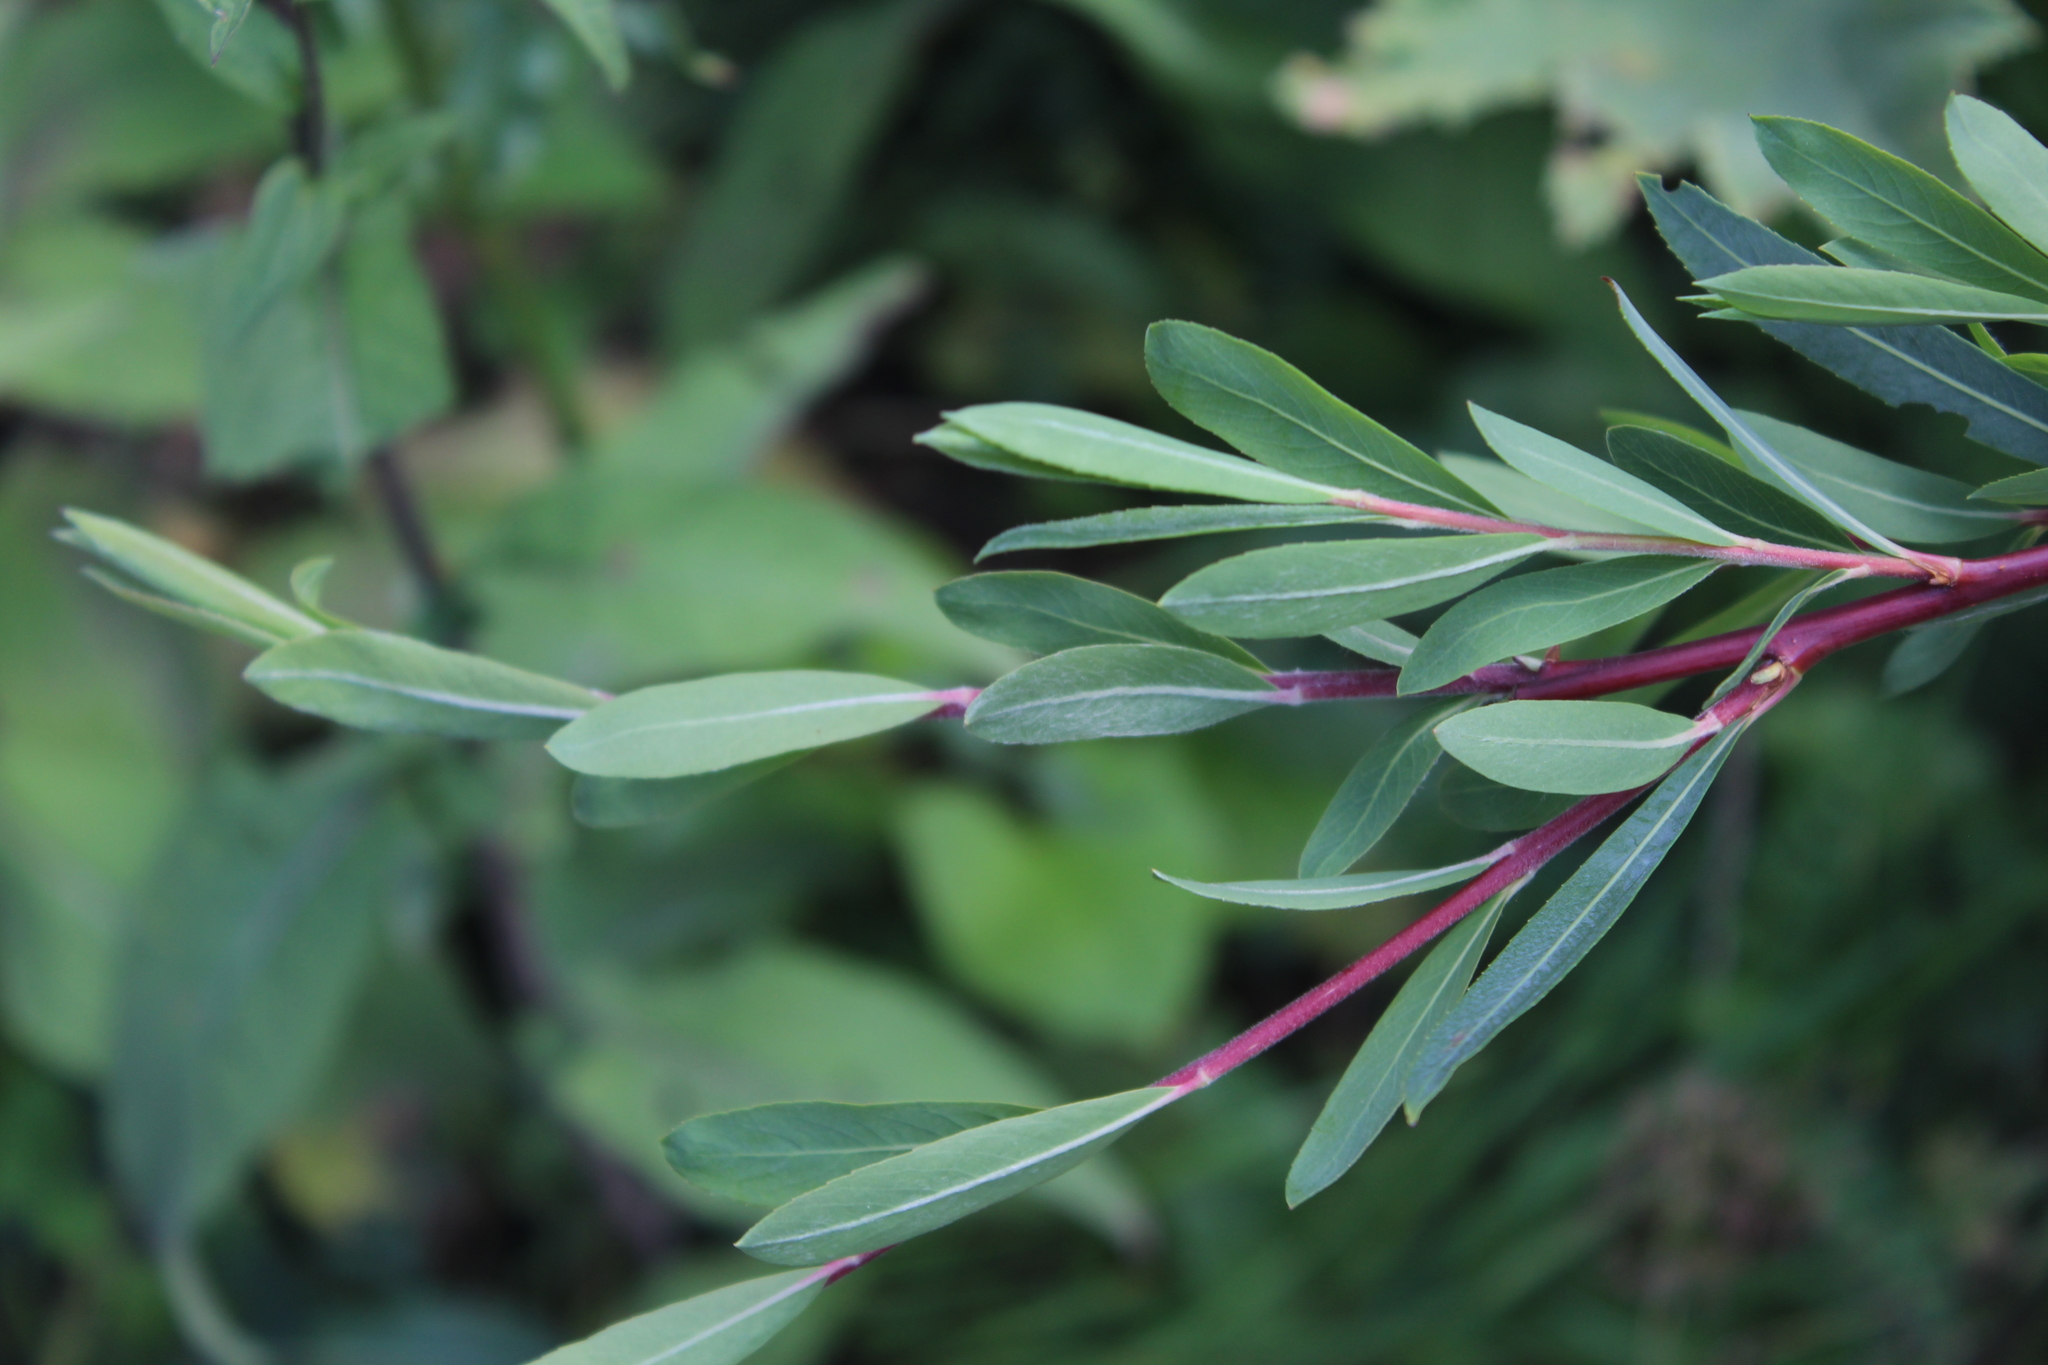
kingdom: Plantae
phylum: Tracheophyta
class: Magnoliopsida
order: Malpighiales
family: Salicaceae
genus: Salix
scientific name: Salix elbrusensis
